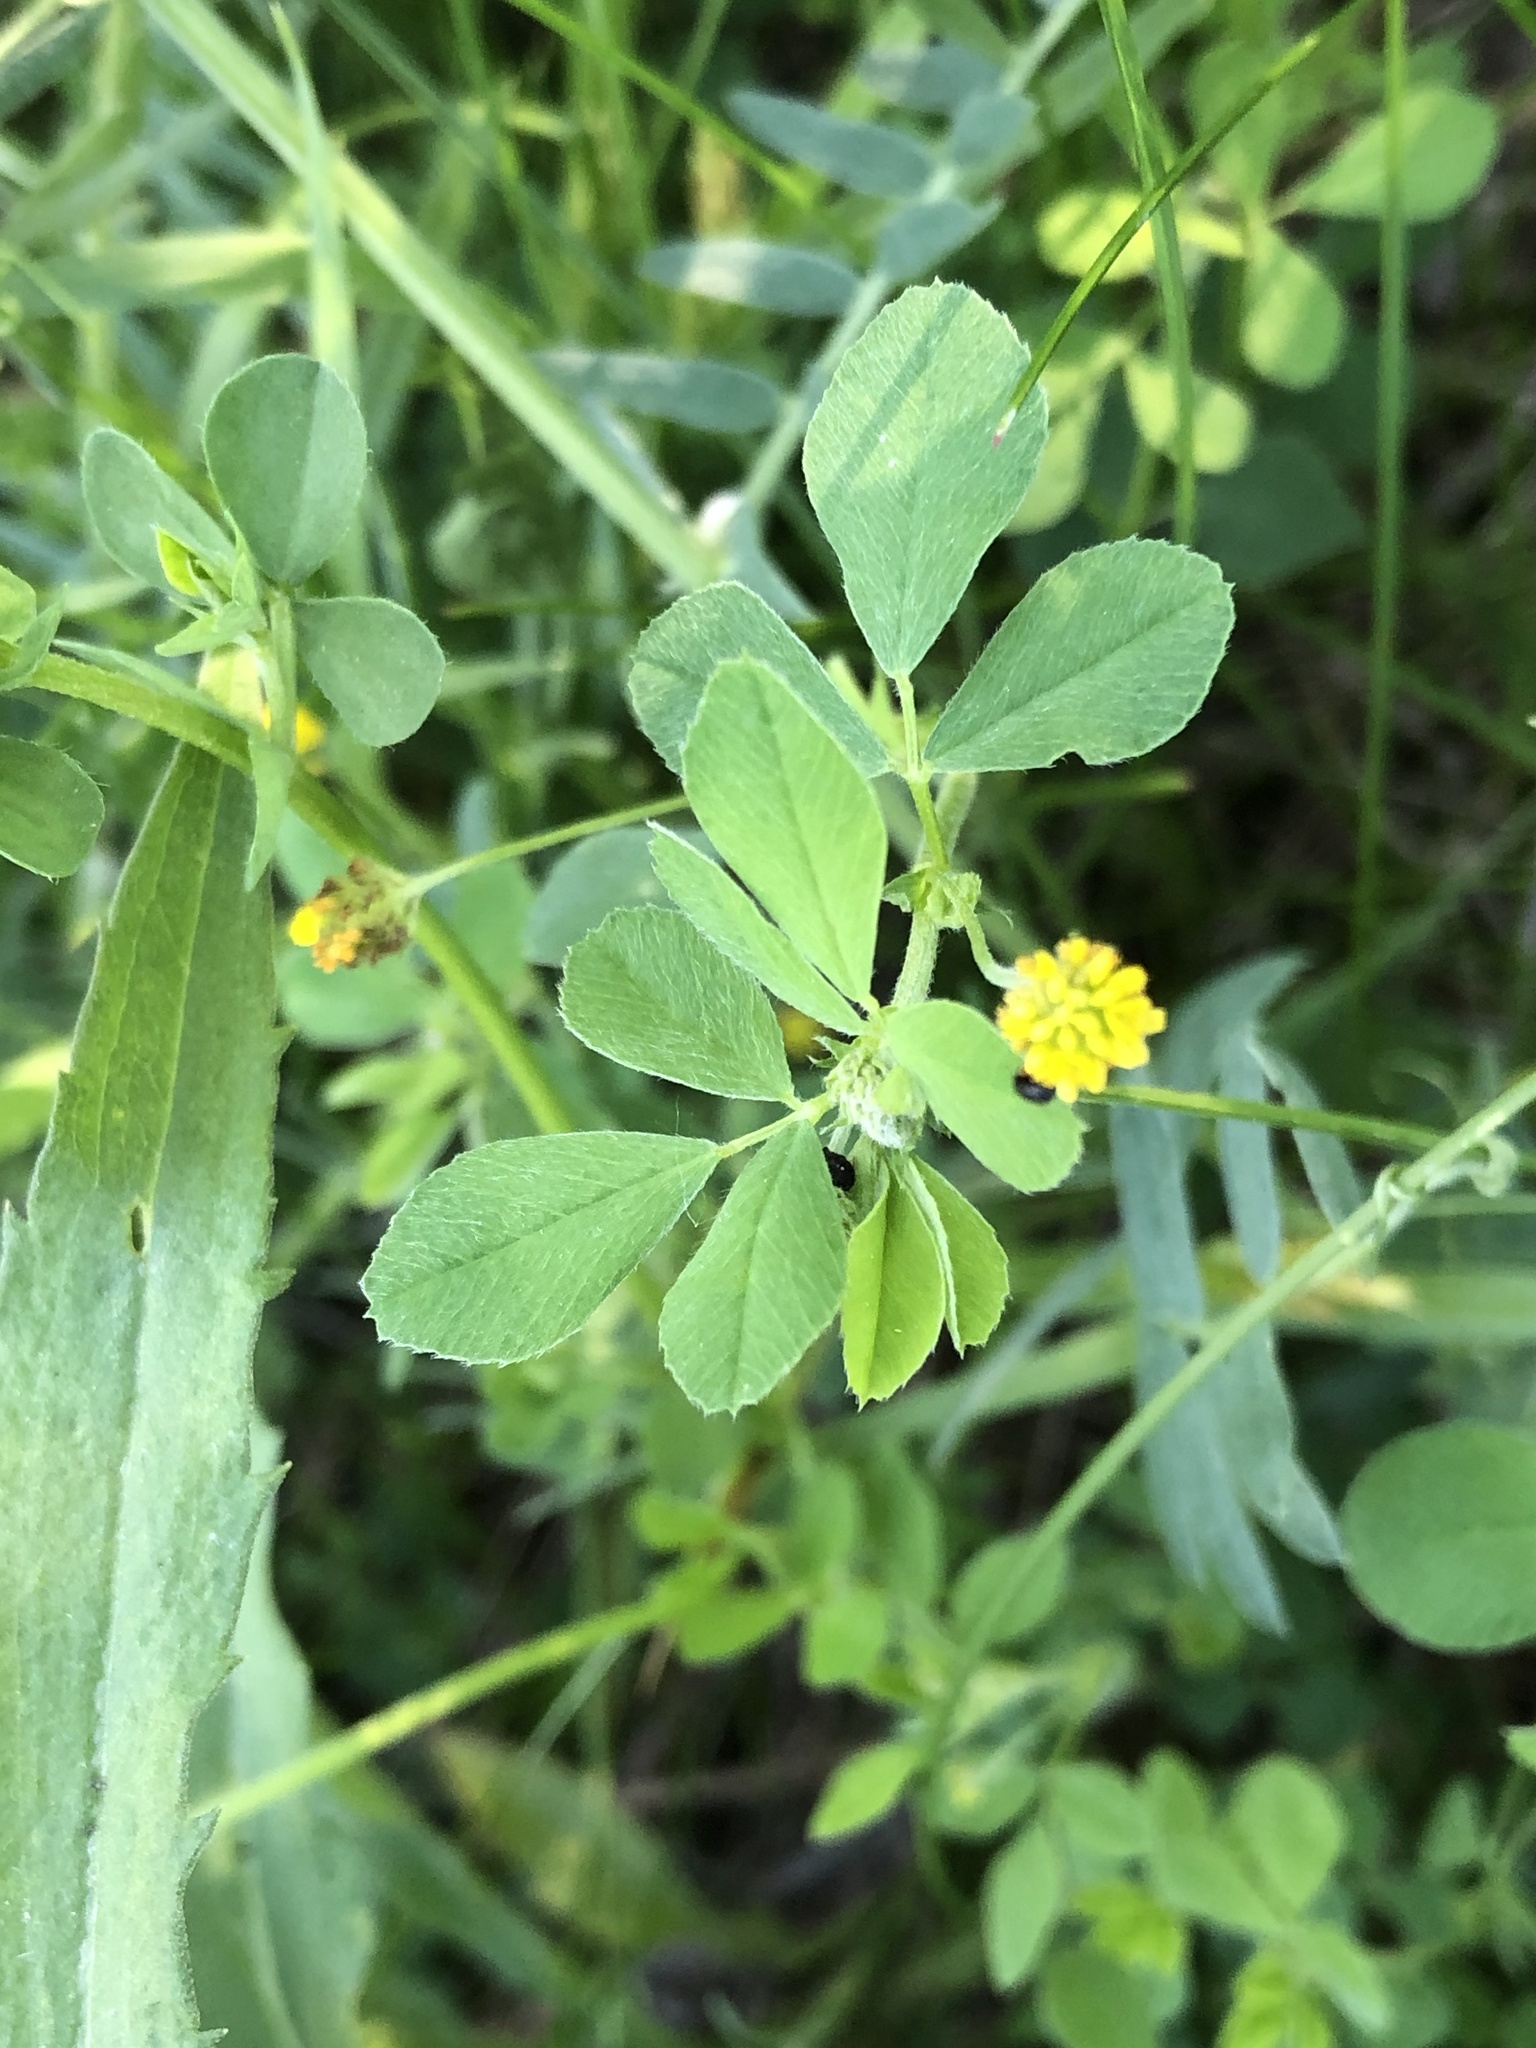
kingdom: Plantae
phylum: Tracheophyta
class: Magnoliopsida
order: Fabales
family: Fabaceae
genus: Medicago
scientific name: Medicago lupulina
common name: Black medick
